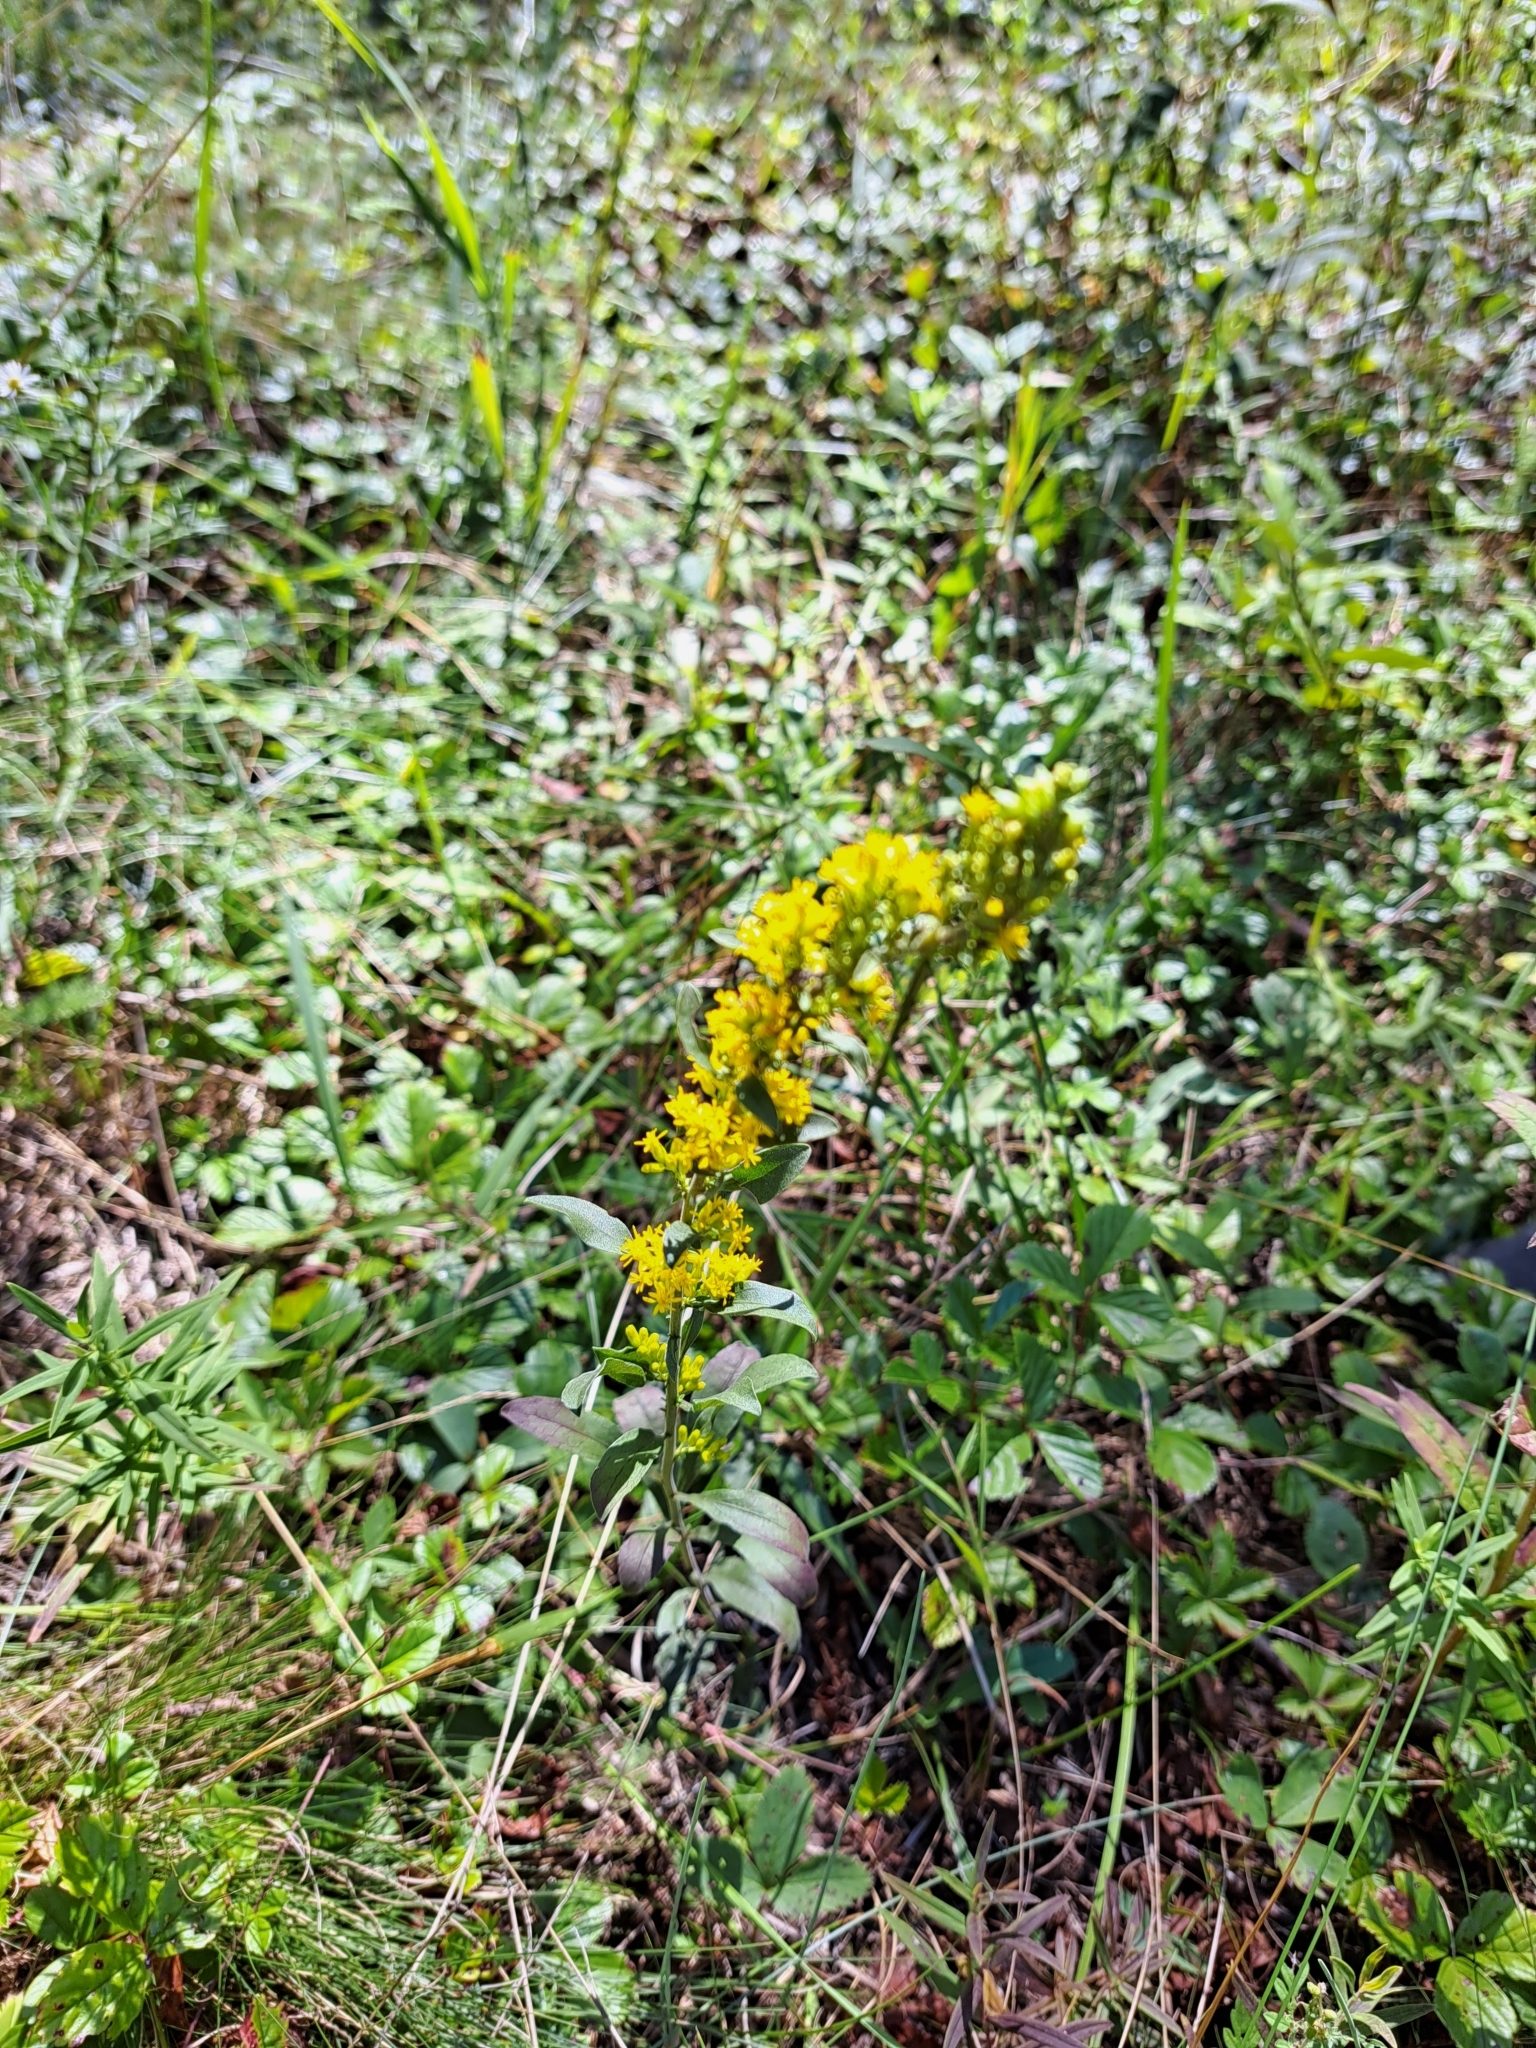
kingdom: Plantae
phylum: Tracheophyta
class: Magnoliopsida
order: Asterales
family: Asteraceae
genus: Solidago
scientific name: Solidago nemoralis
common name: Grey goldenrod
